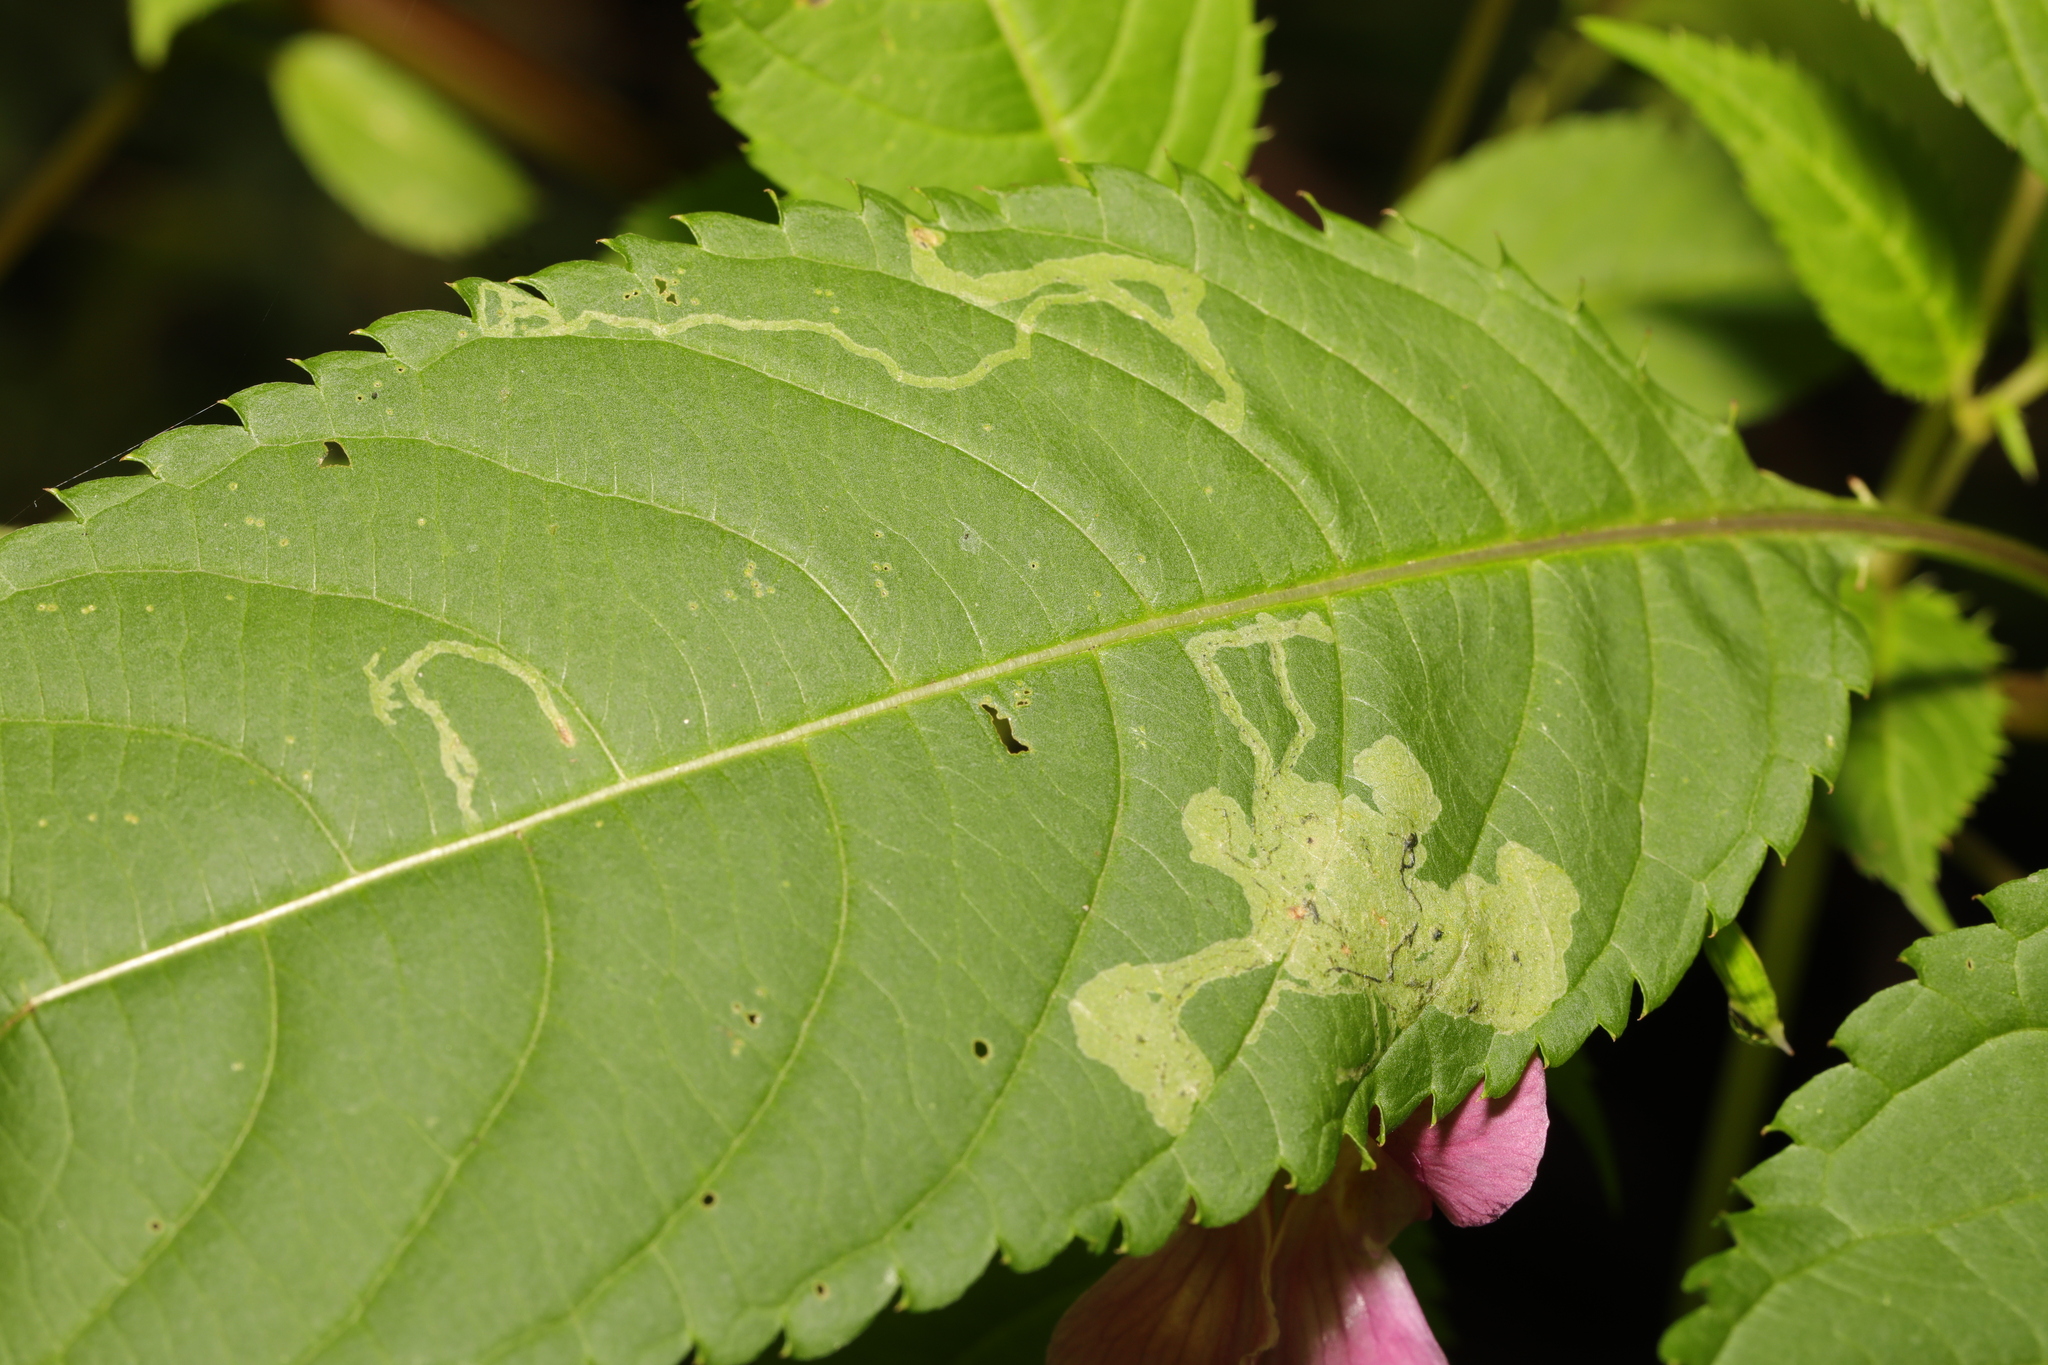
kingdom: Animalia
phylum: Arthropoda
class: Insecta
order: Diptera
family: Agromyzidae
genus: Phytoliriomyza
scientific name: Phytoliriomyza melampyga
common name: Jewelweed leaf-miner fly
